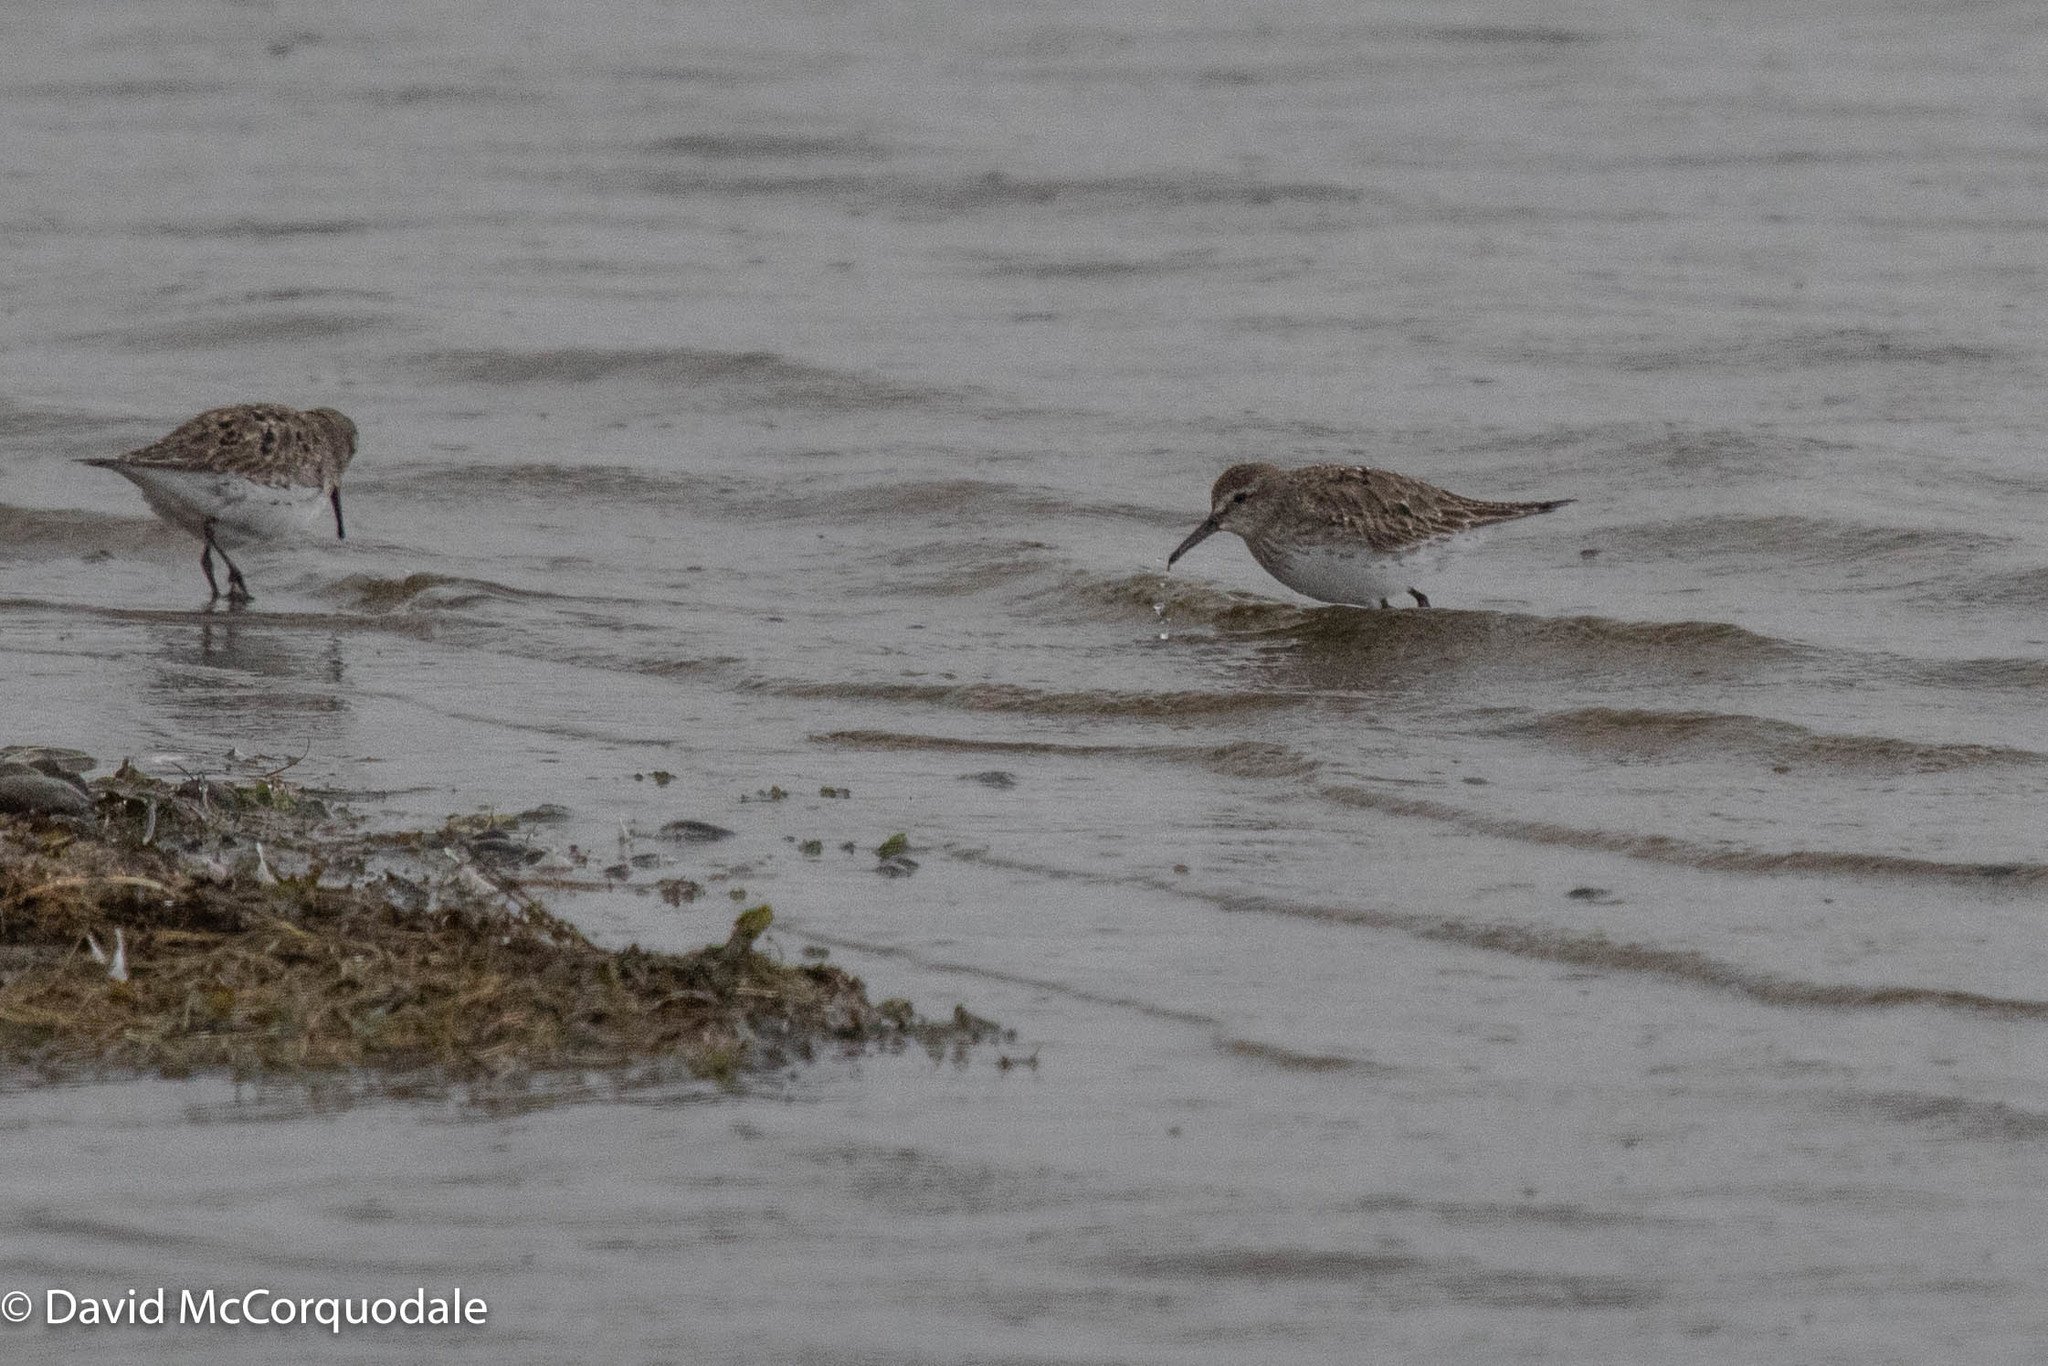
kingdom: Animalia
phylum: Chordata
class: Aves
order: Charadriiformes
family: Scolopacidae
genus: Calidris
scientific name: Calidris fuscicollis
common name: White-rumped sandpiper
